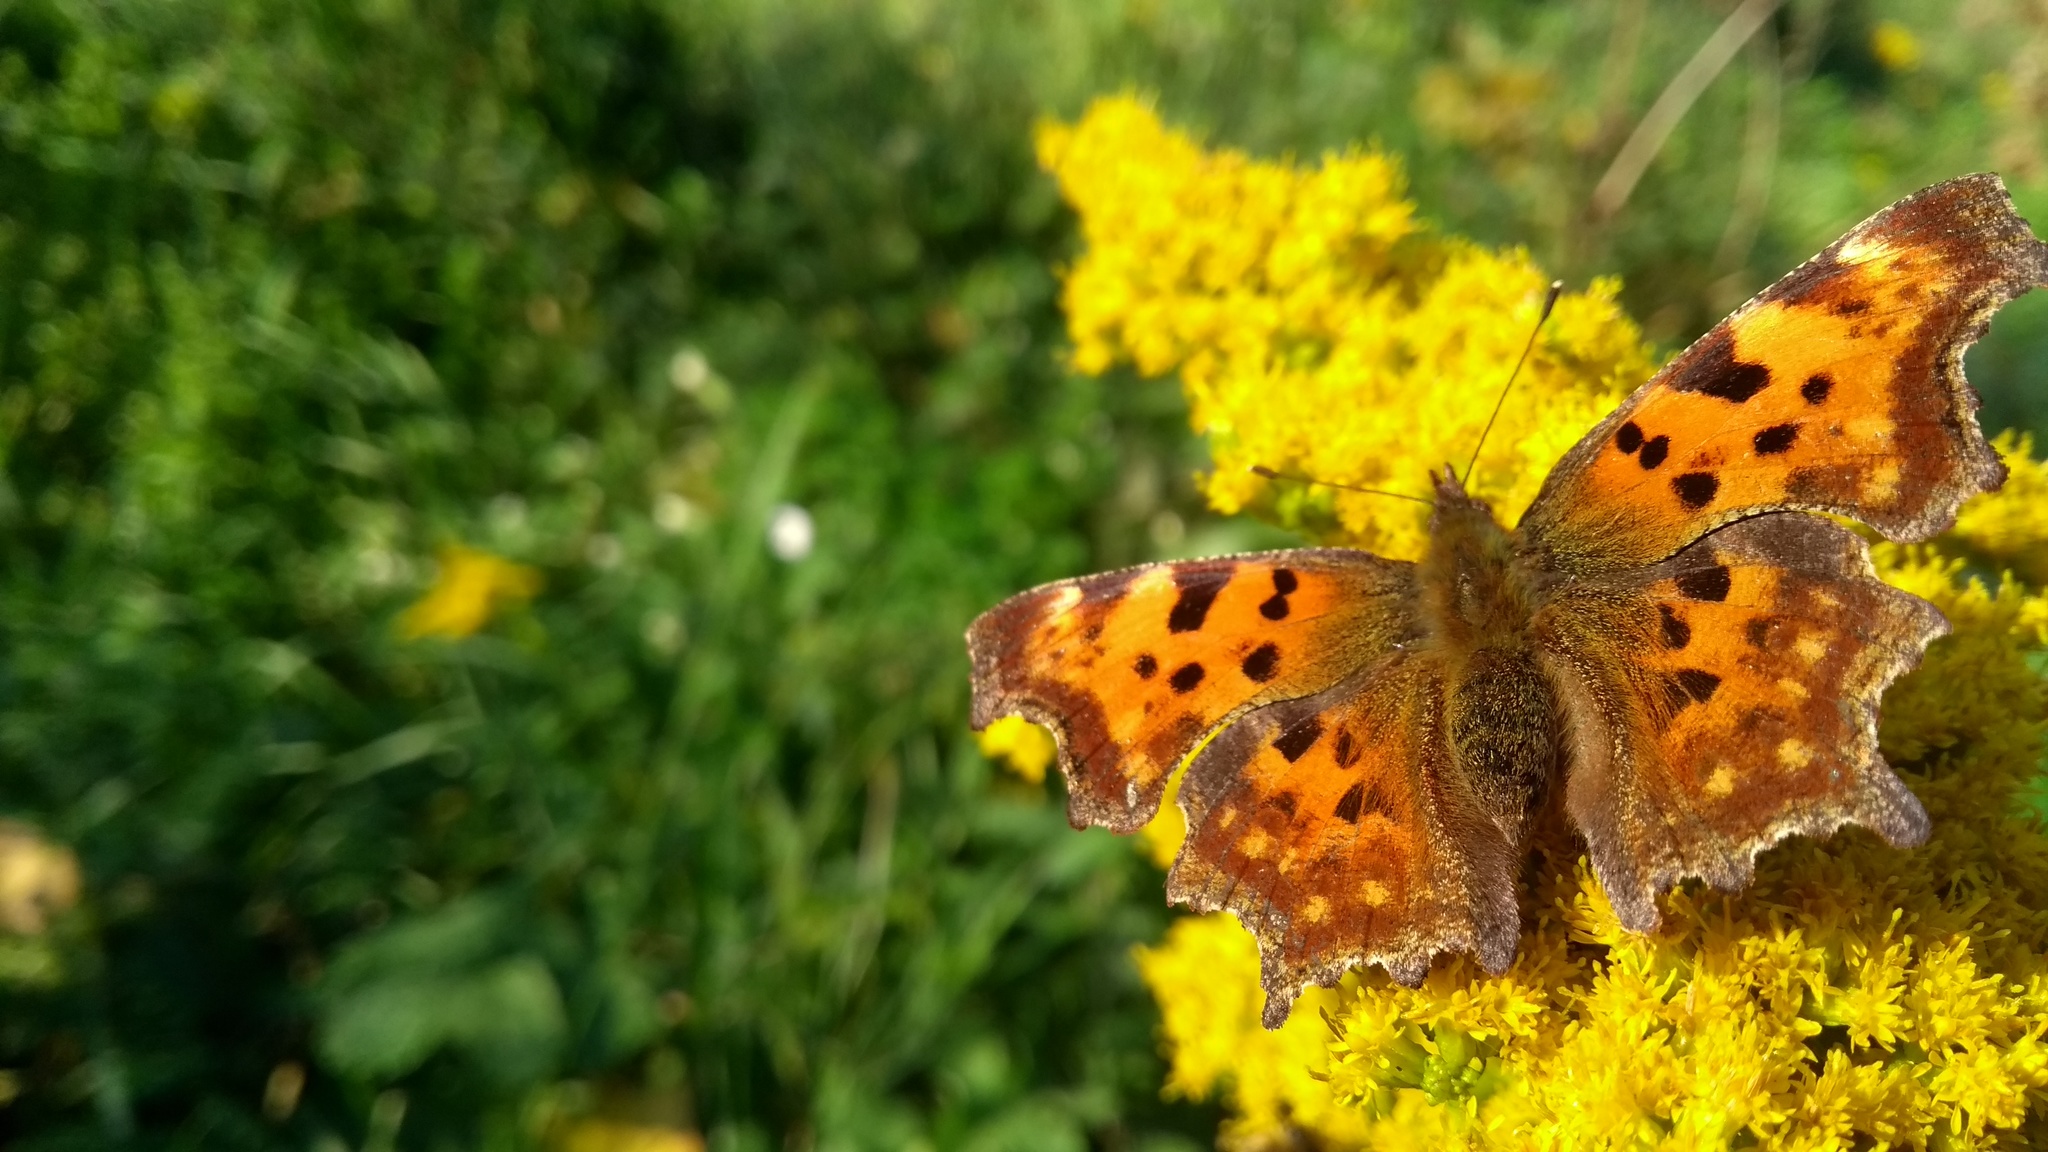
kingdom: Animalia
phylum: Arthropoda
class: Insecta
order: Lepidoptera
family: Nymphalidae
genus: Polygonia
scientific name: Polygonia c-album
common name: Comma
